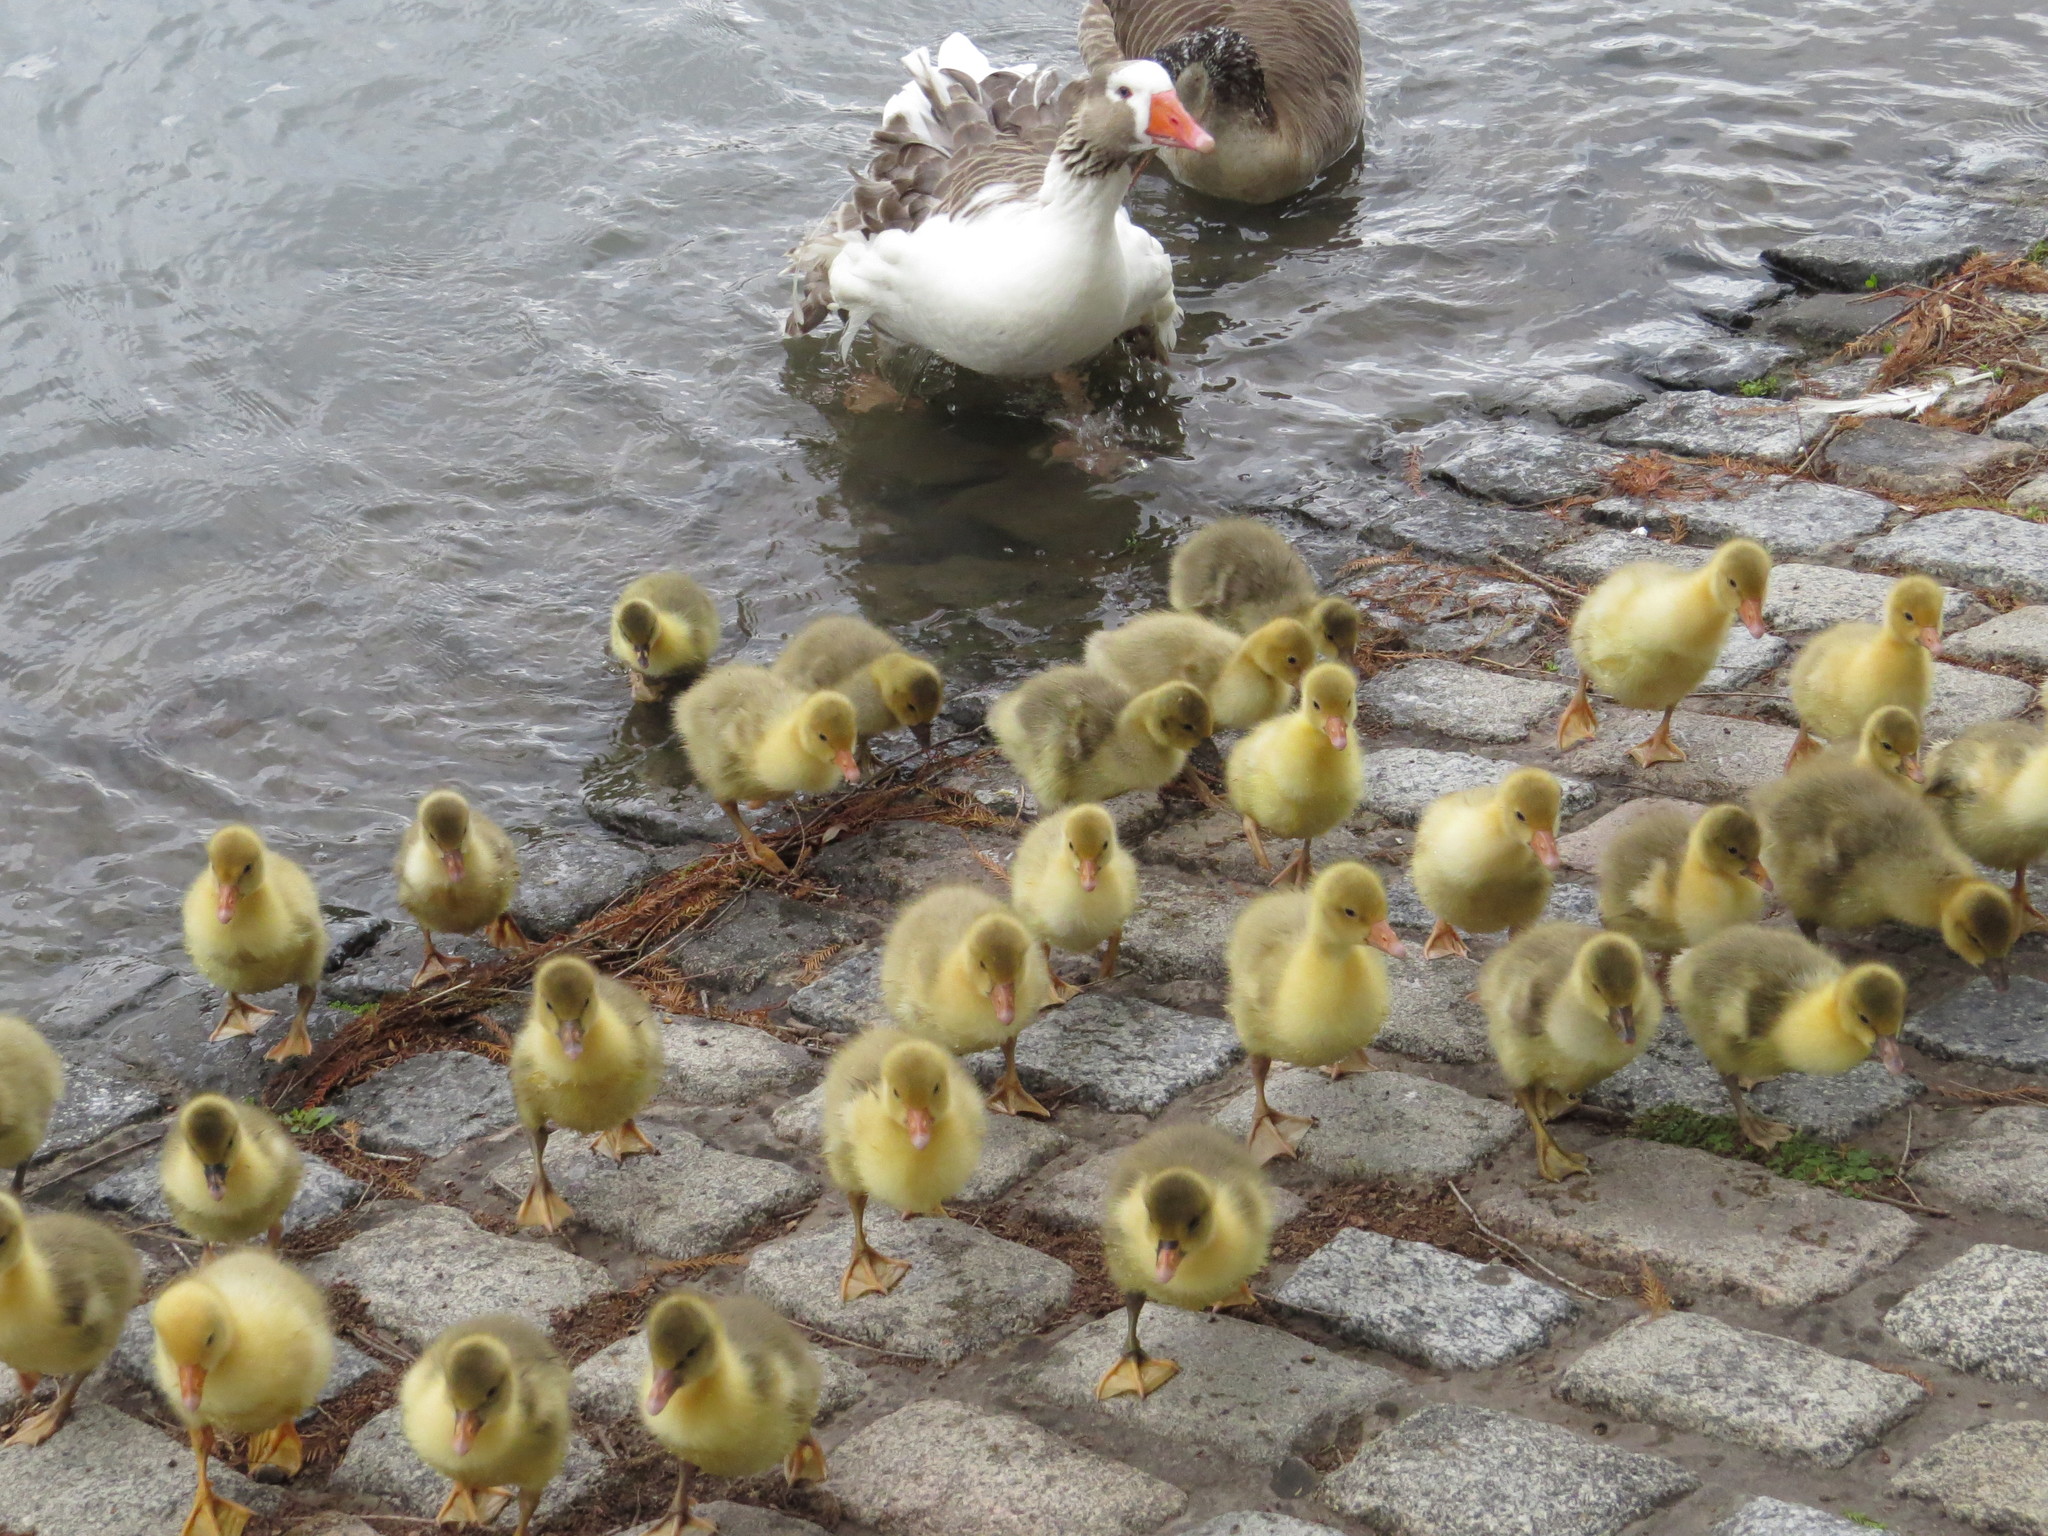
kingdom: Animalia
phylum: Chordata
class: Aves
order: Anseriformes
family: Anatidae
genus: Anser
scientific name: Anser anser
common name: Greylag goose
